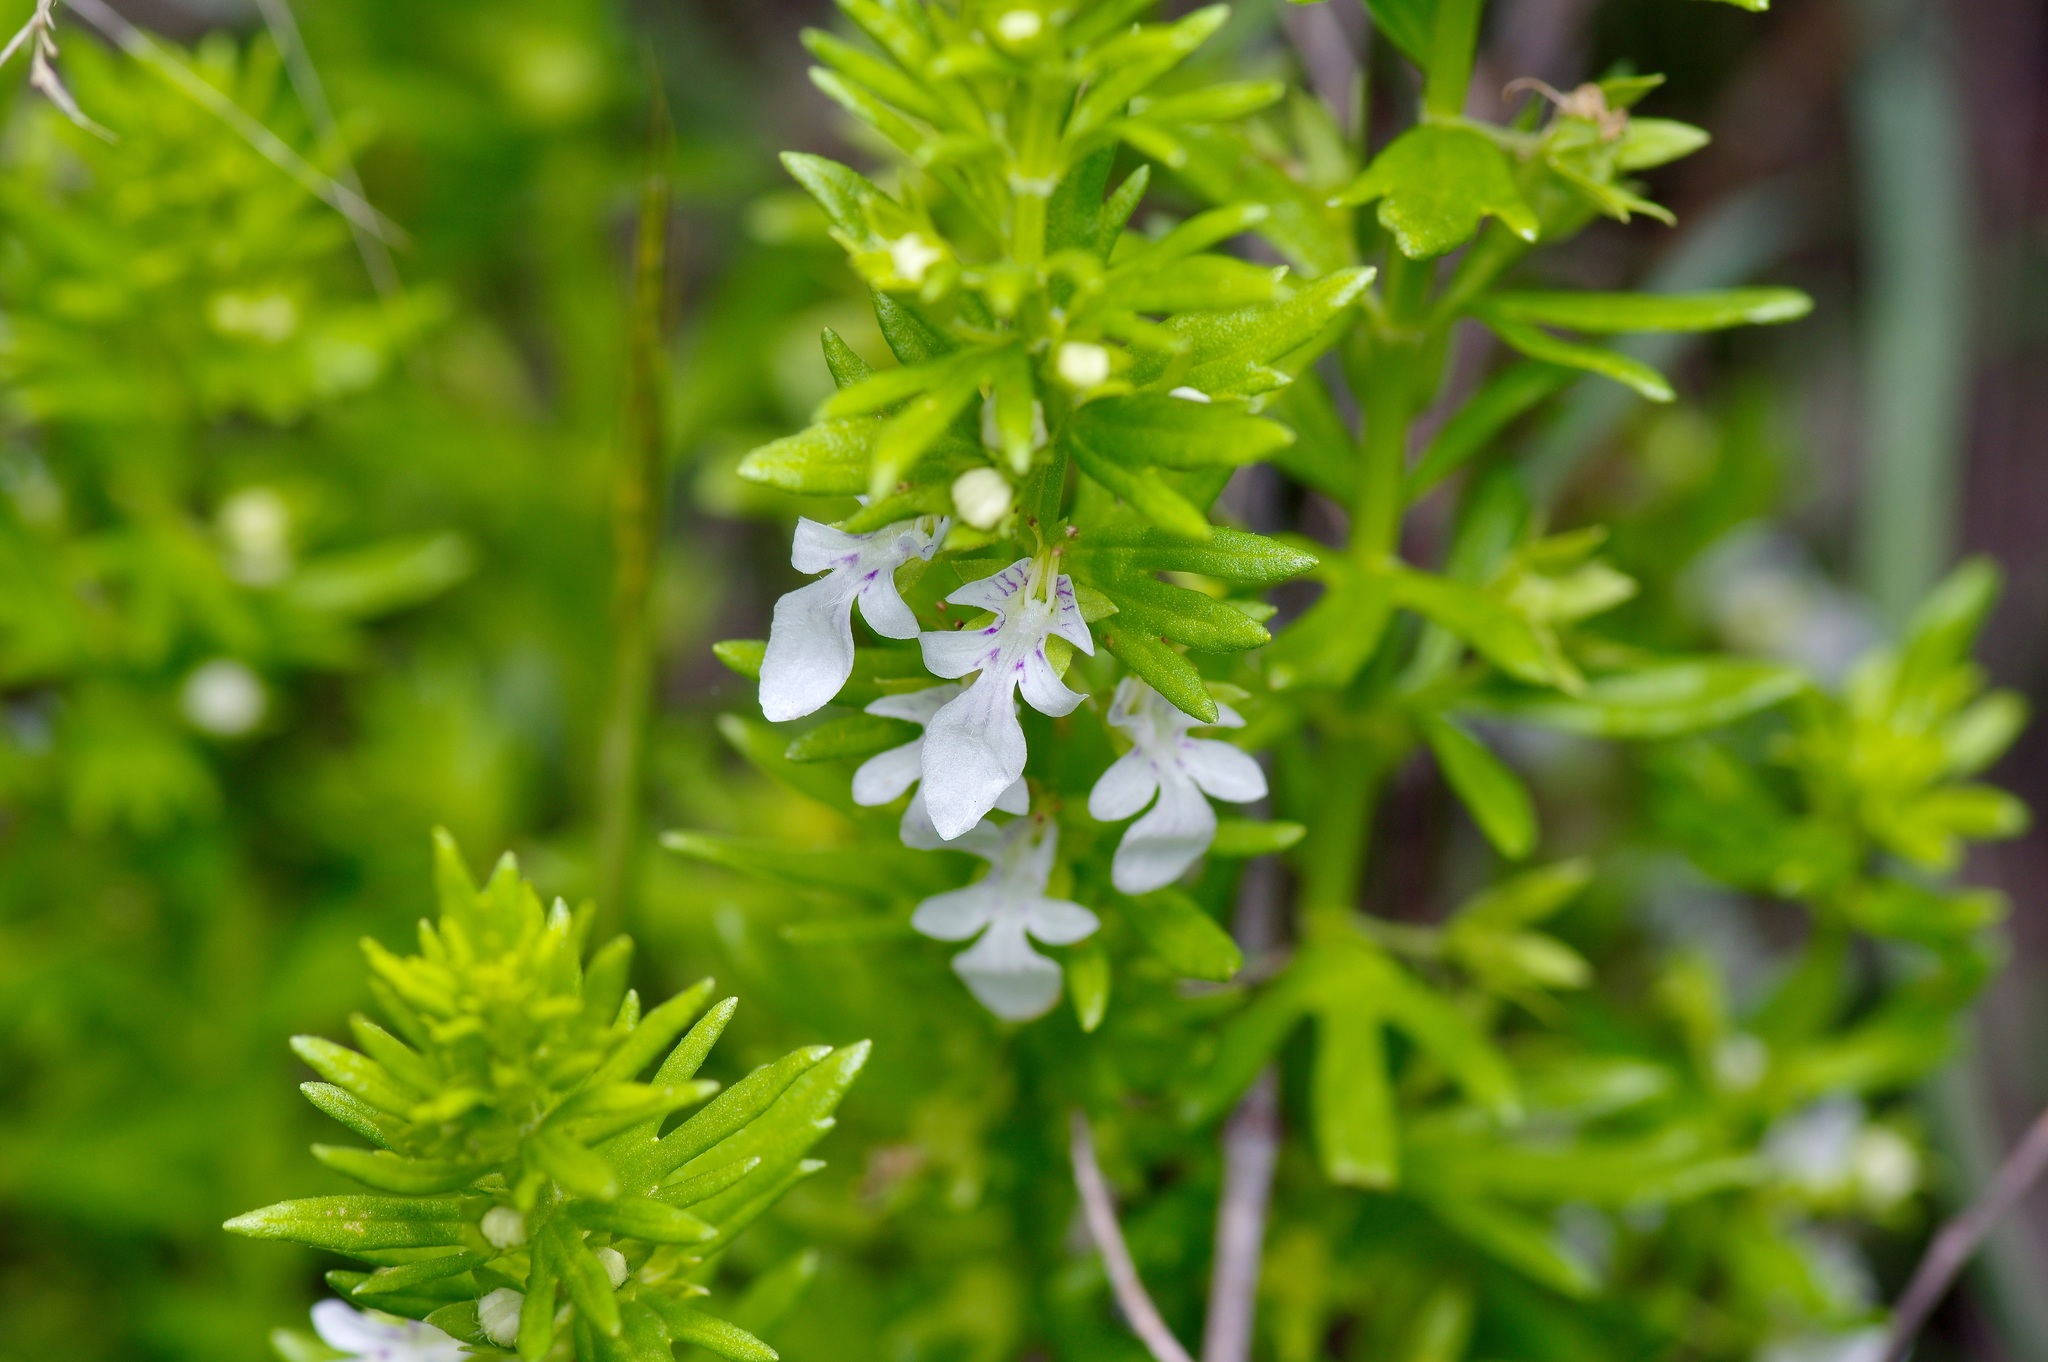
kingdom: Plantae
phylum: Tracheophyta
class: Magnoliopsida
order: Lamiales
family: Lamiaceae
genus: Teucrium
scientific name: Teucrium cubense
